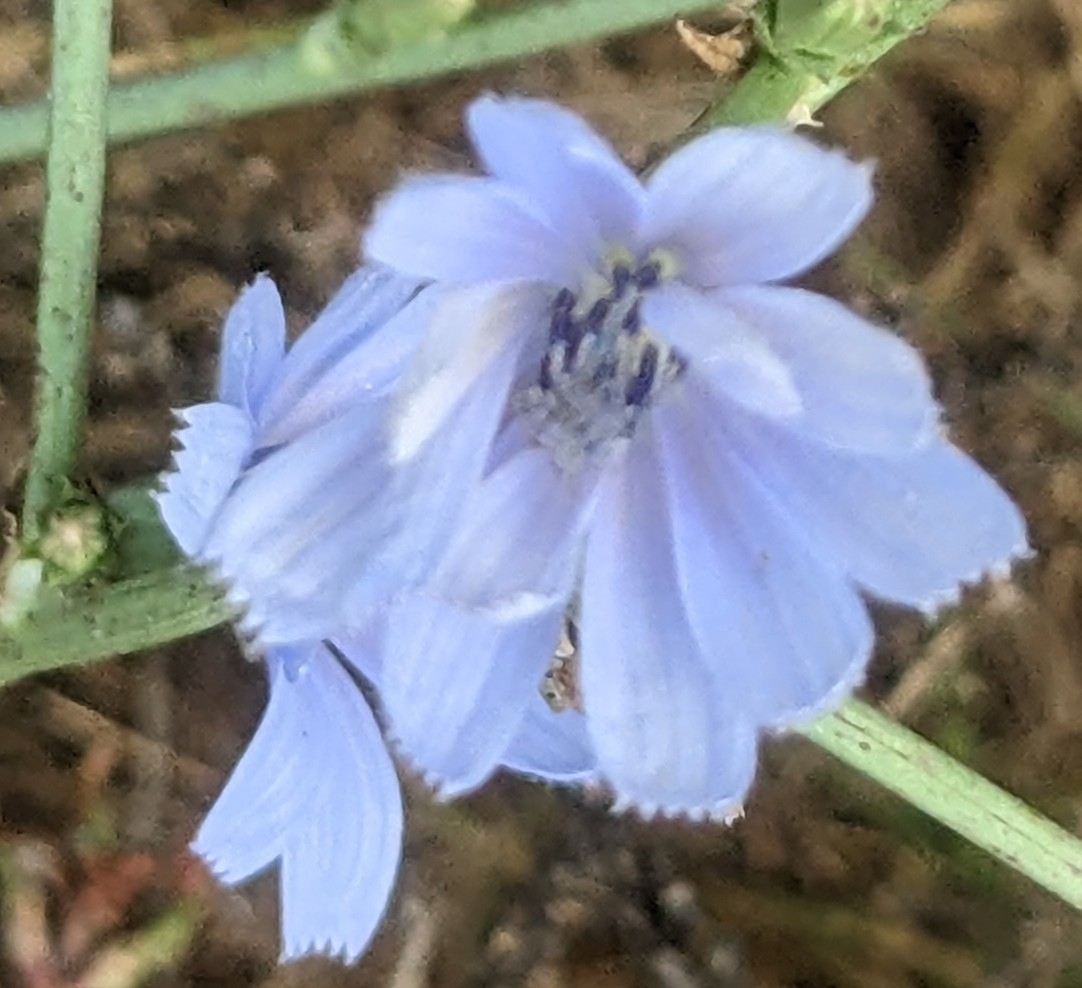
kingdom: Plantae
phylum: Tracheophyta
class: Magnoliopsida
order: Asterales
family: Asteraceae
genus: Cichorium
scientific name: Cichorium intybus
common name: Chicory
